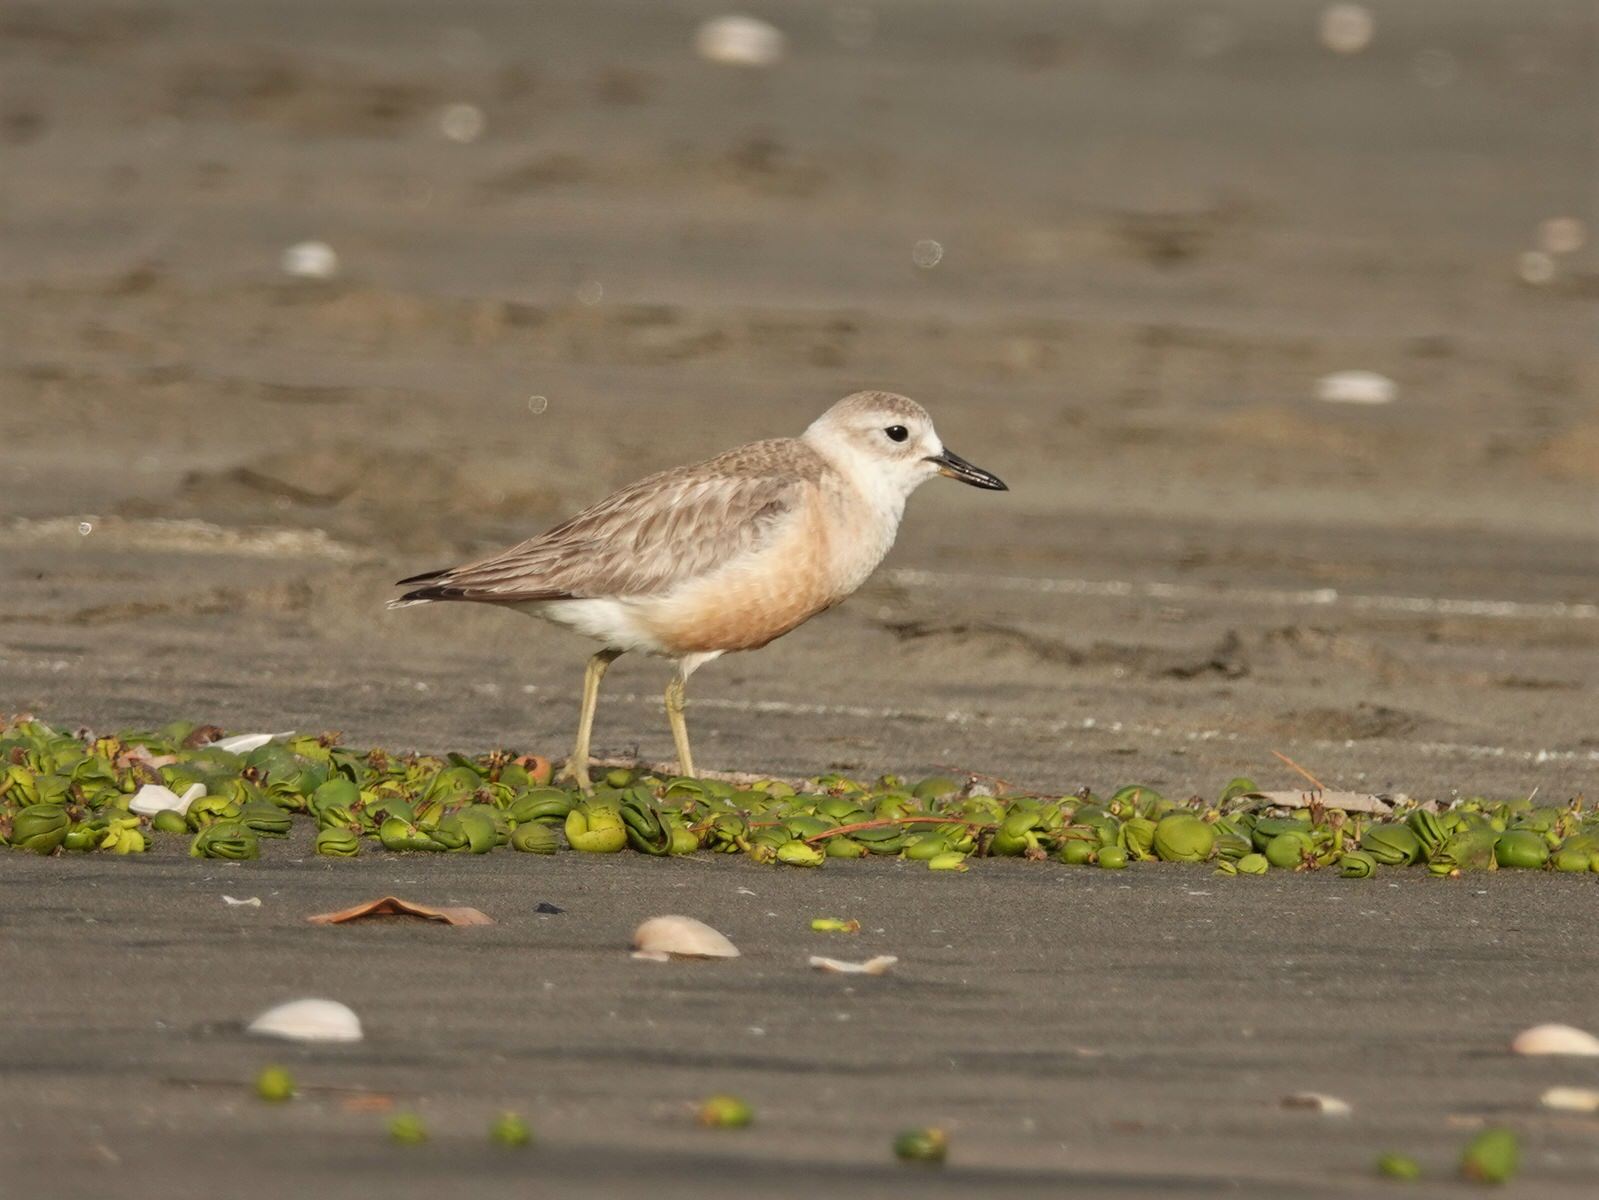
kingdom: Animalia
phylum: Chordata
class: Aves
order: Charadriiformes
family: Charadriidae
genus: Anarhynchus
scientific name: Anarhynchus
